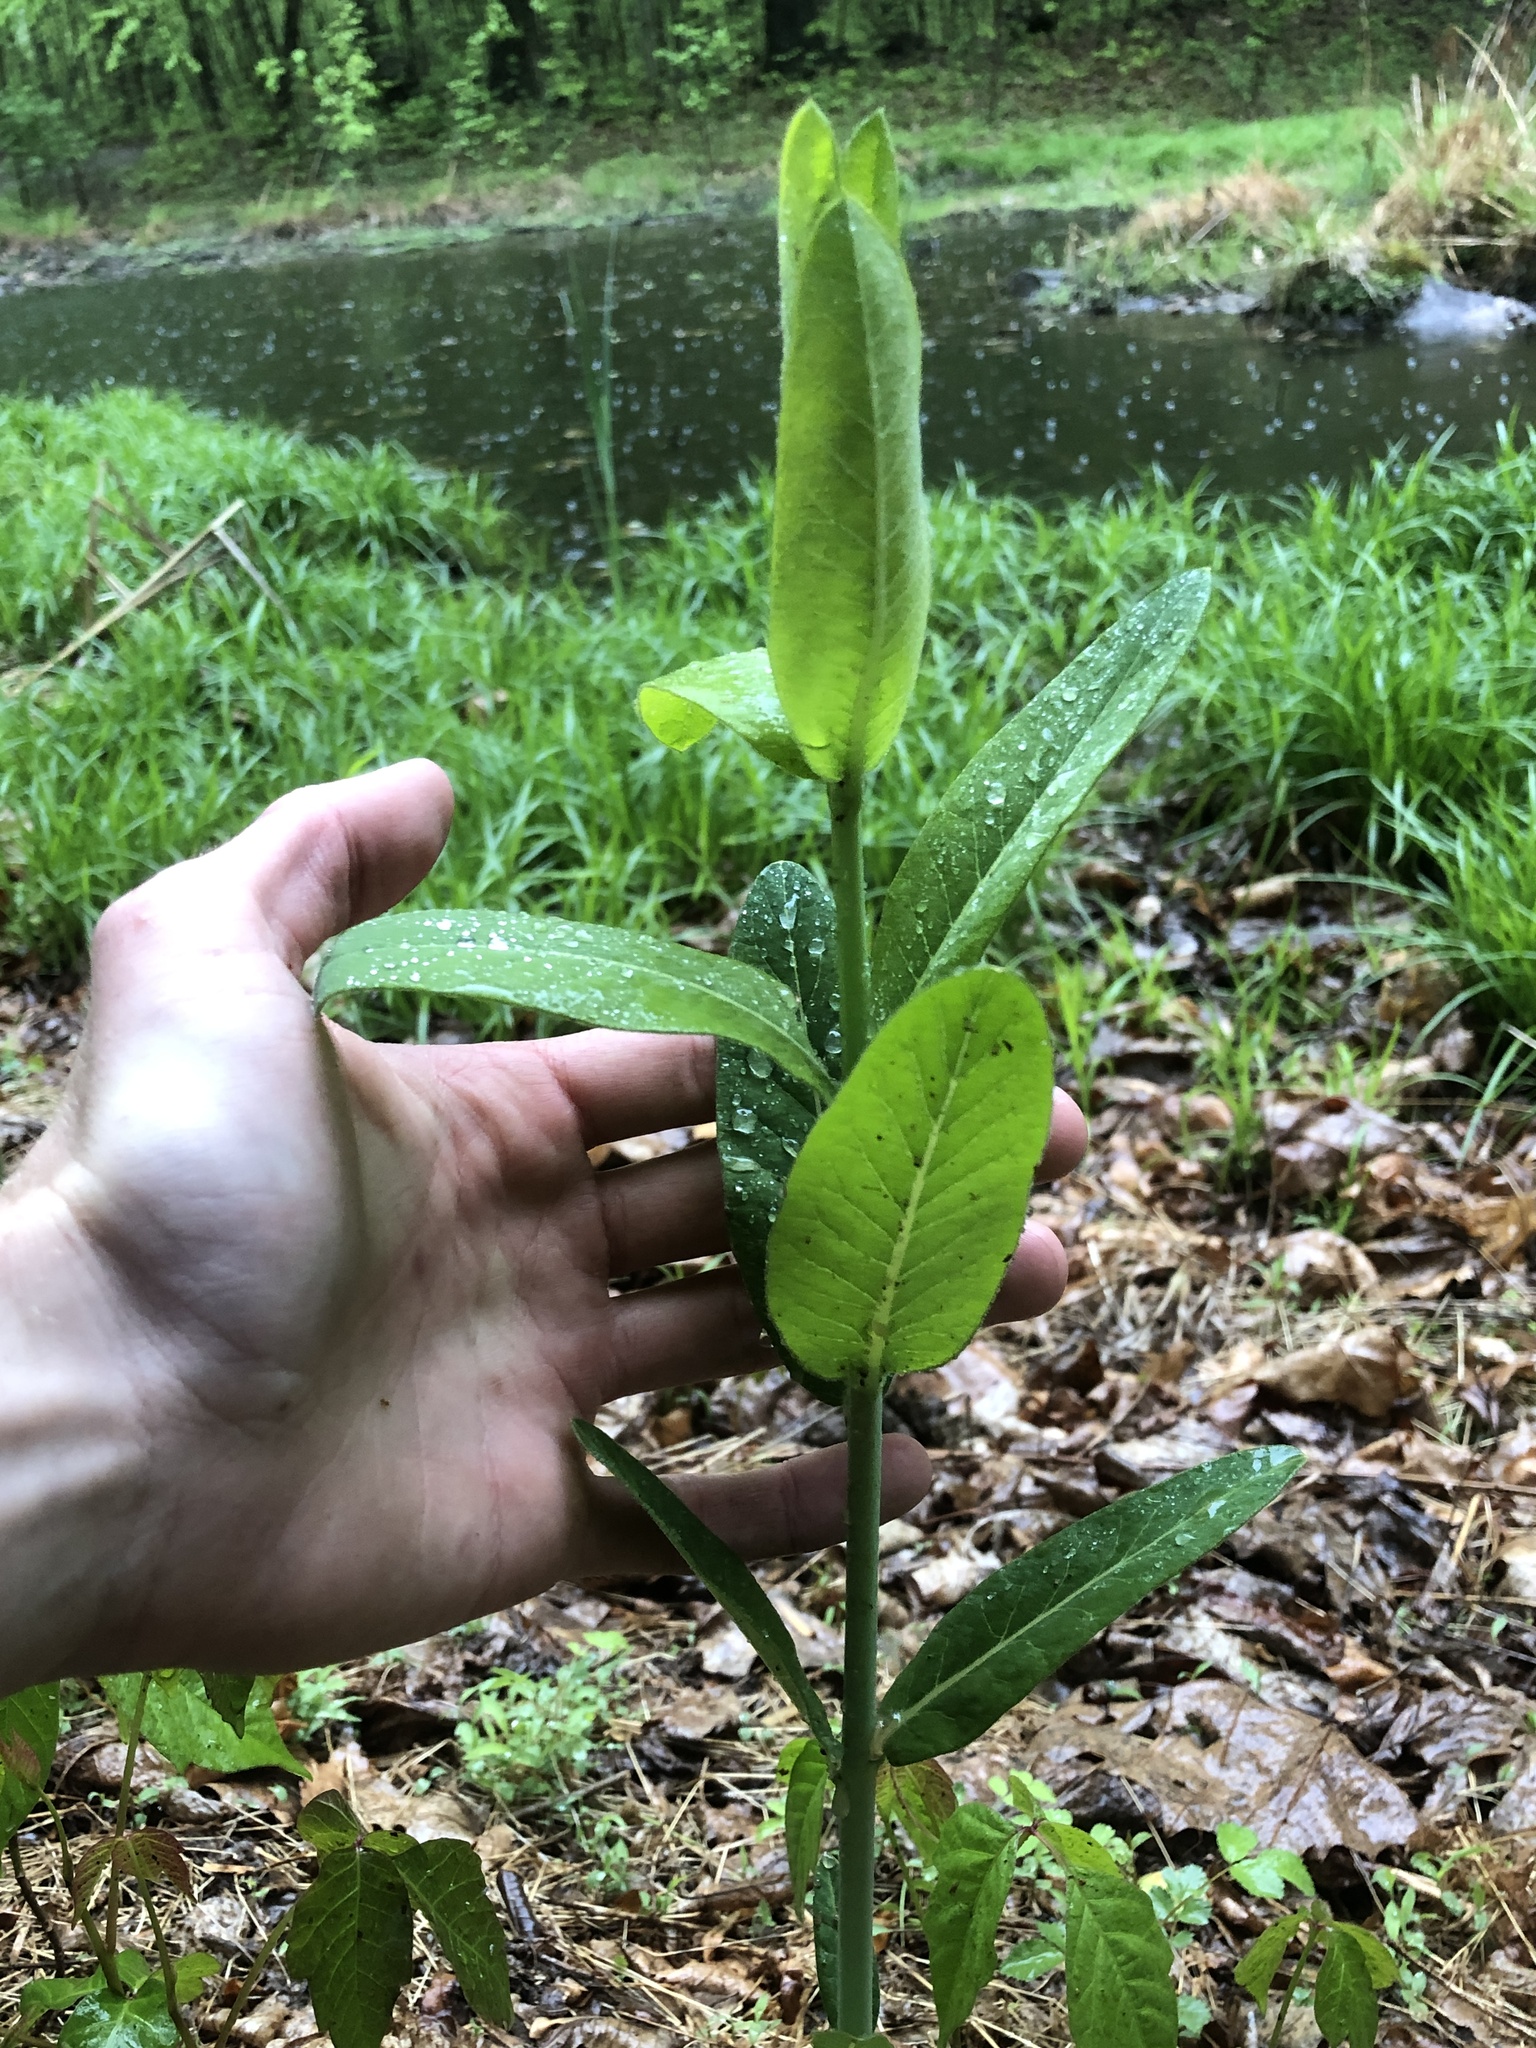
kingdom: Plantae
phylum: Tracheophyta
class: Magnoliopsida
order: Gentianales
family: Apocynaceae
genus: Apocynum
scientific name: Apocynum cannabinum
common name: Hemp dogbane
